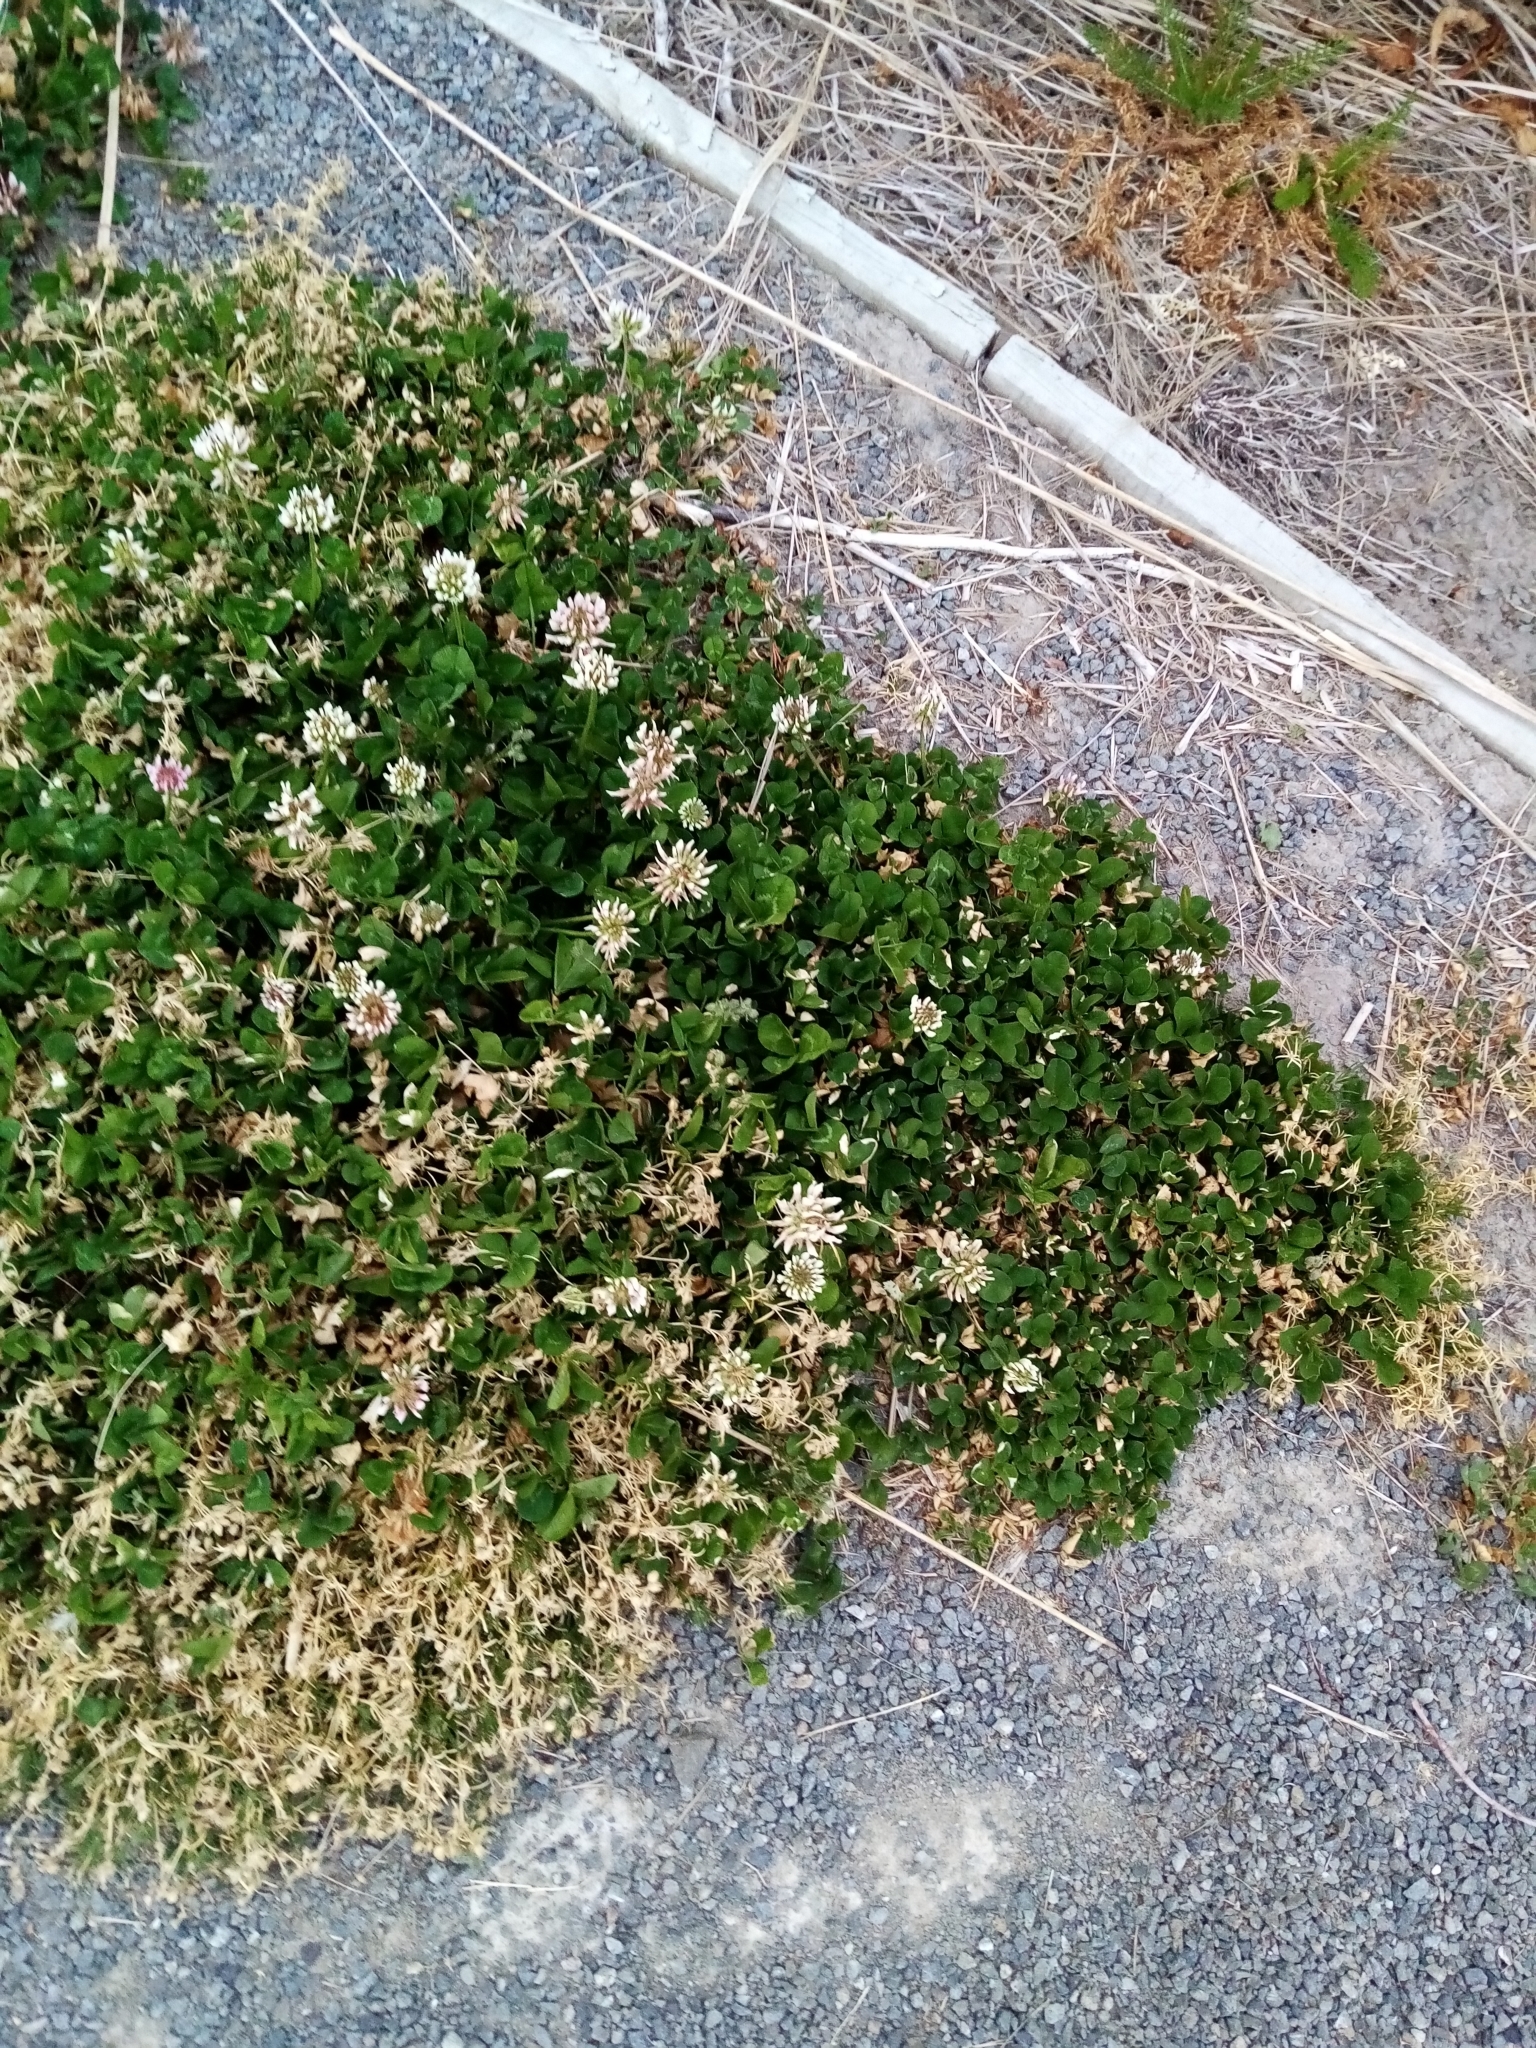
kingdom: Plantae
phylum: Tracheophyta
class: Magnoliopsida
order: Fabales
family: Fabaceae
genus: Trifolium
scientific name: Trifolium repens
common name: White clover
